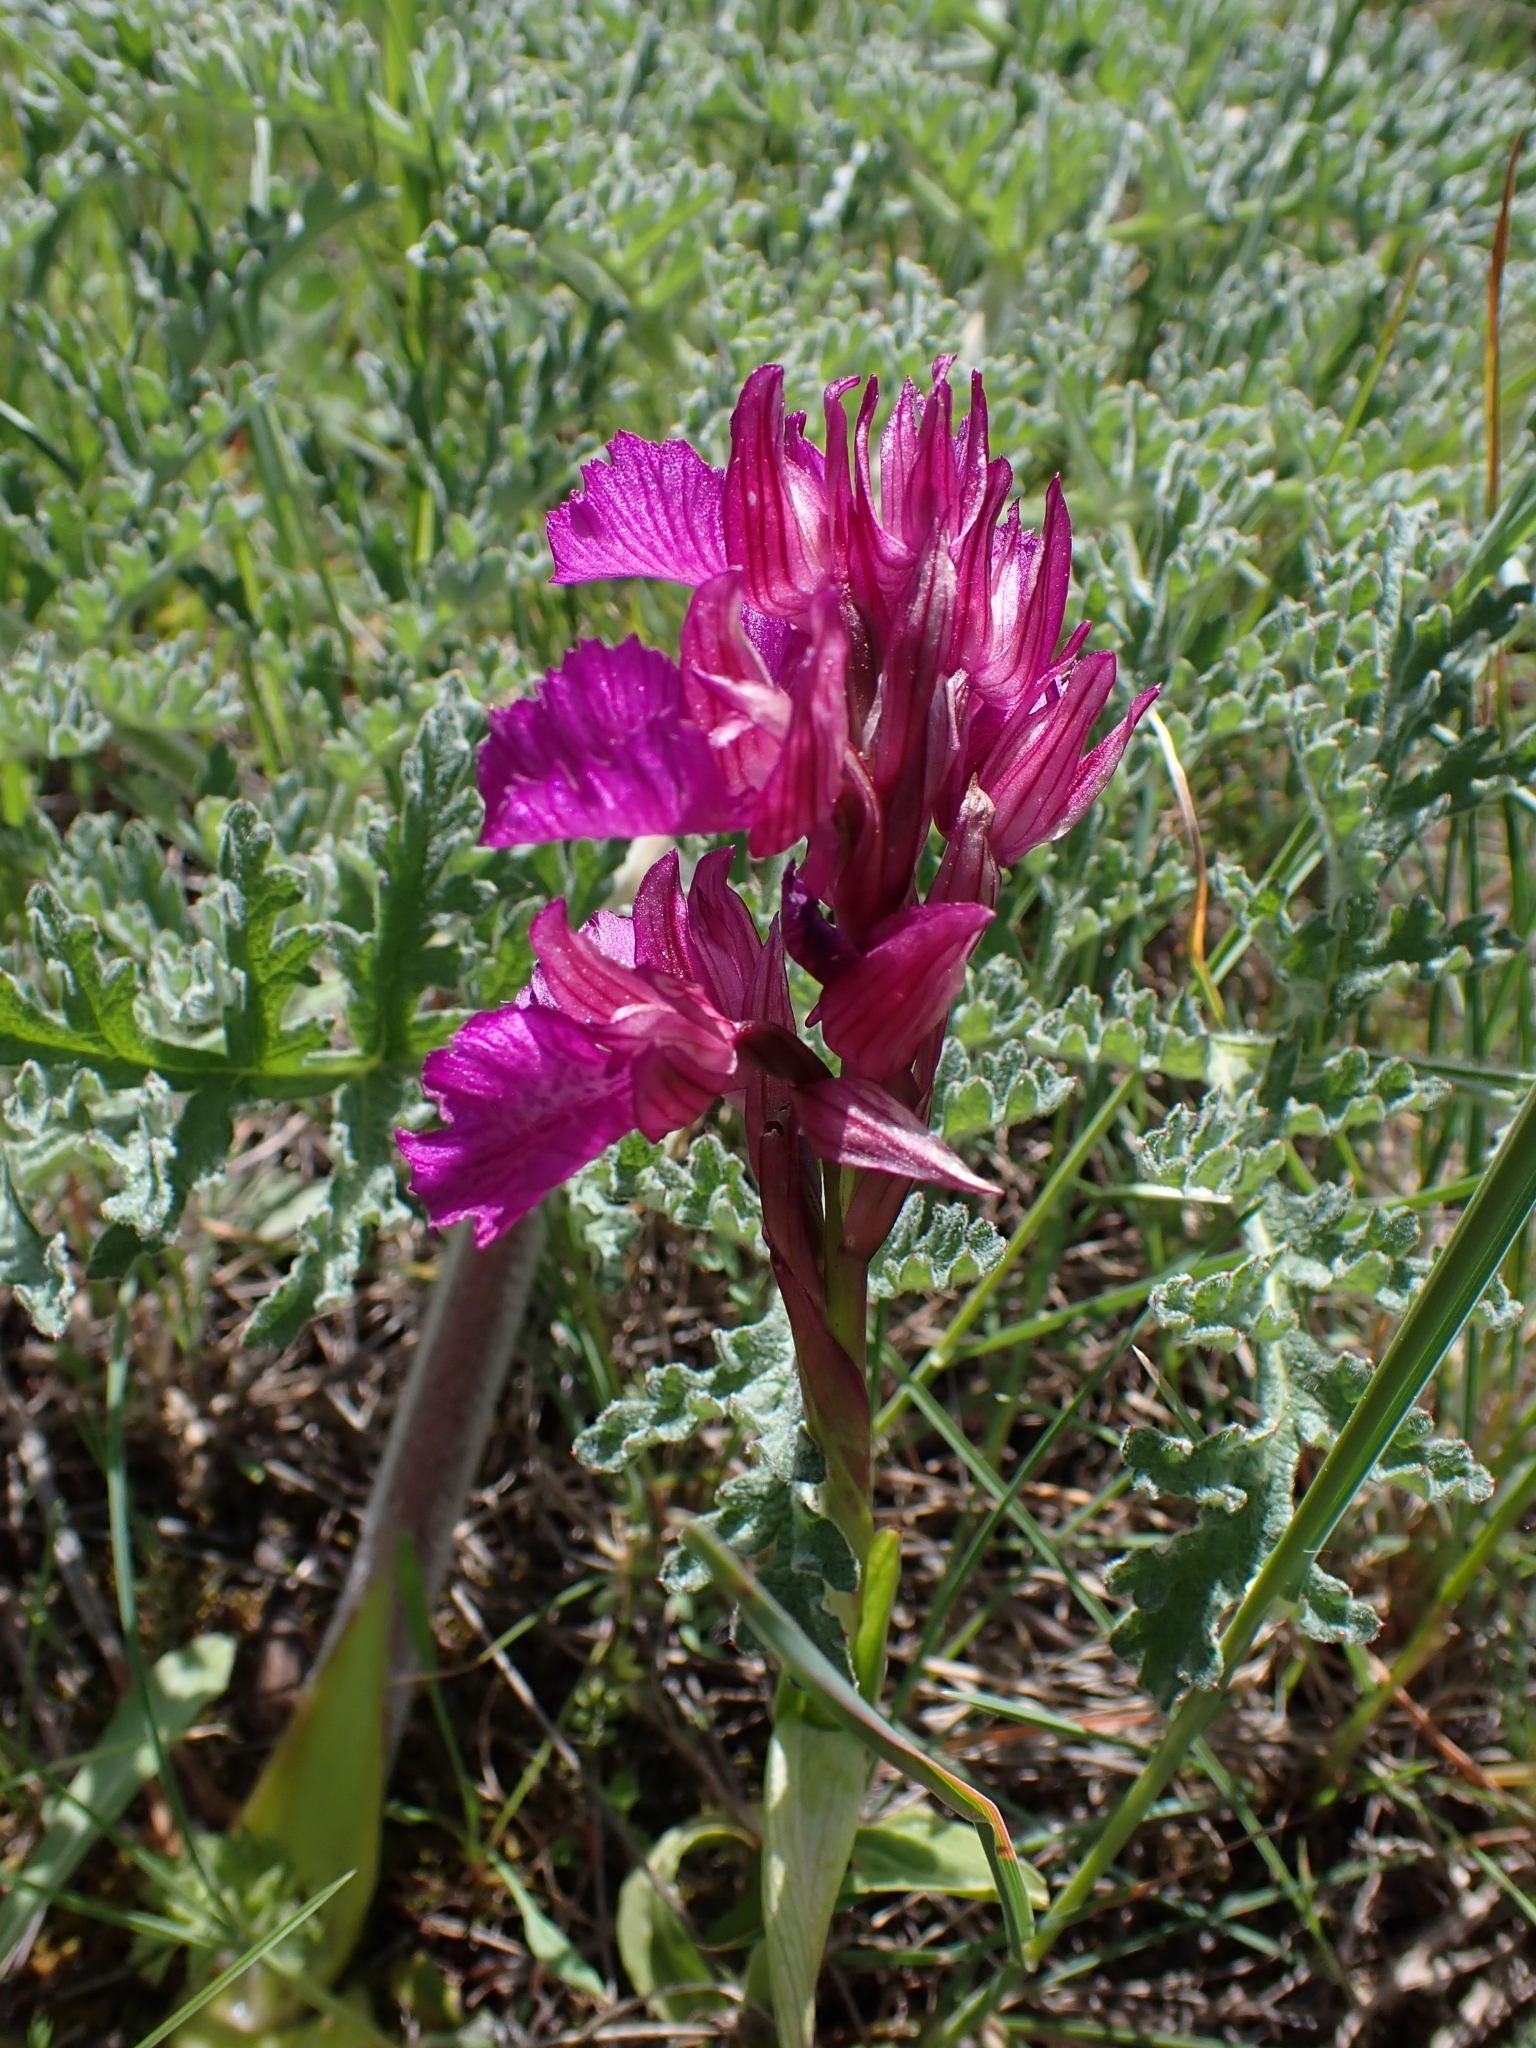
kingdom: Plantae
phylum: Tracheophyta
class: Liliopsida
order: Asparagales
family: Orchidaceae
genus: Anacamptis
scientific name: Anacamptis papilionacea
